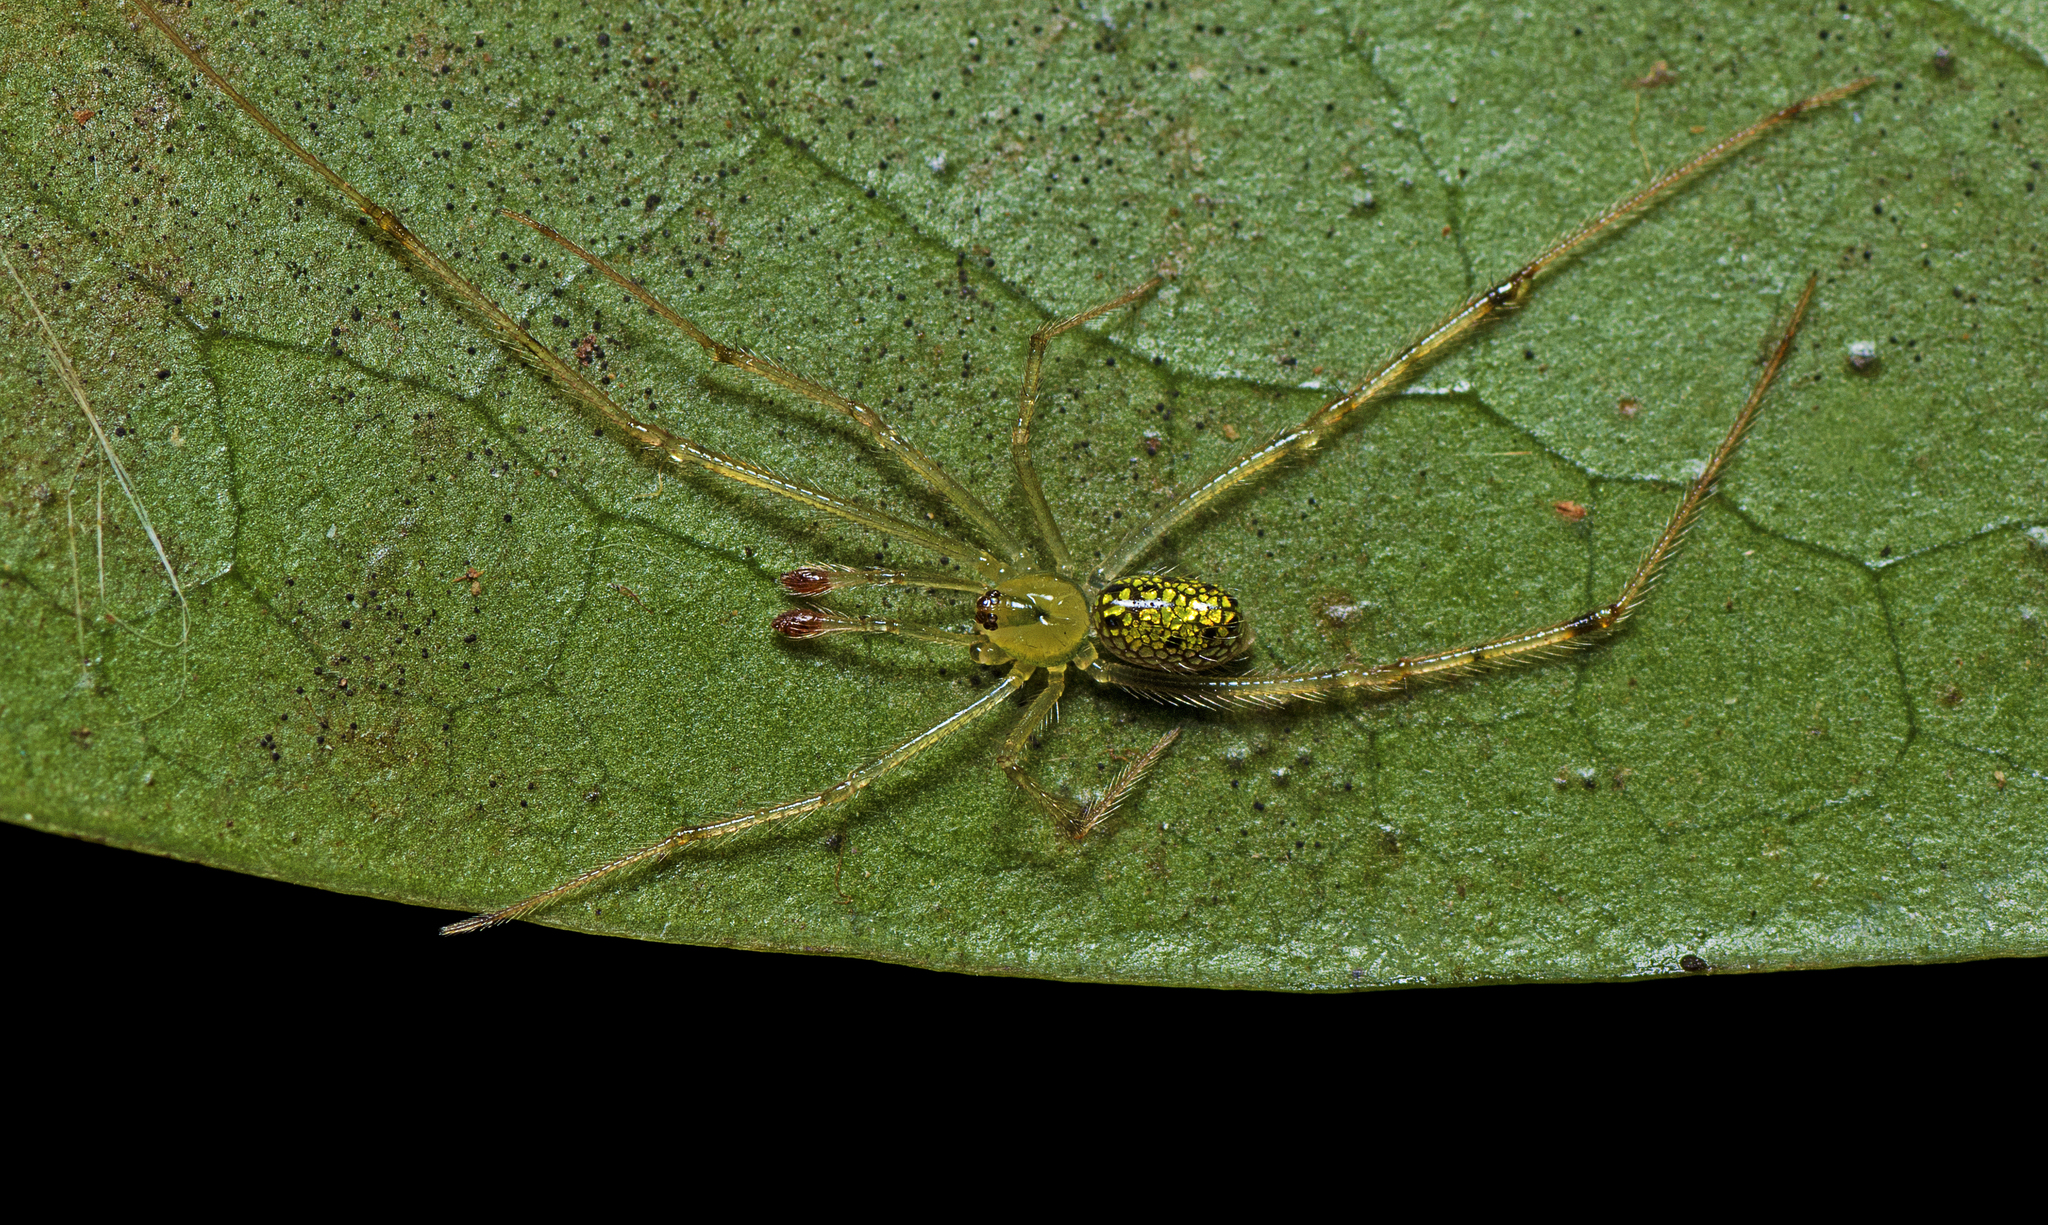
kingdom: Animalia
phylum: Arthropoda
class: Arachnida
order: Araneae
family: Theridiidae
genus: Thwaitesia
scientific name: Thwaitesia nigronodosa
